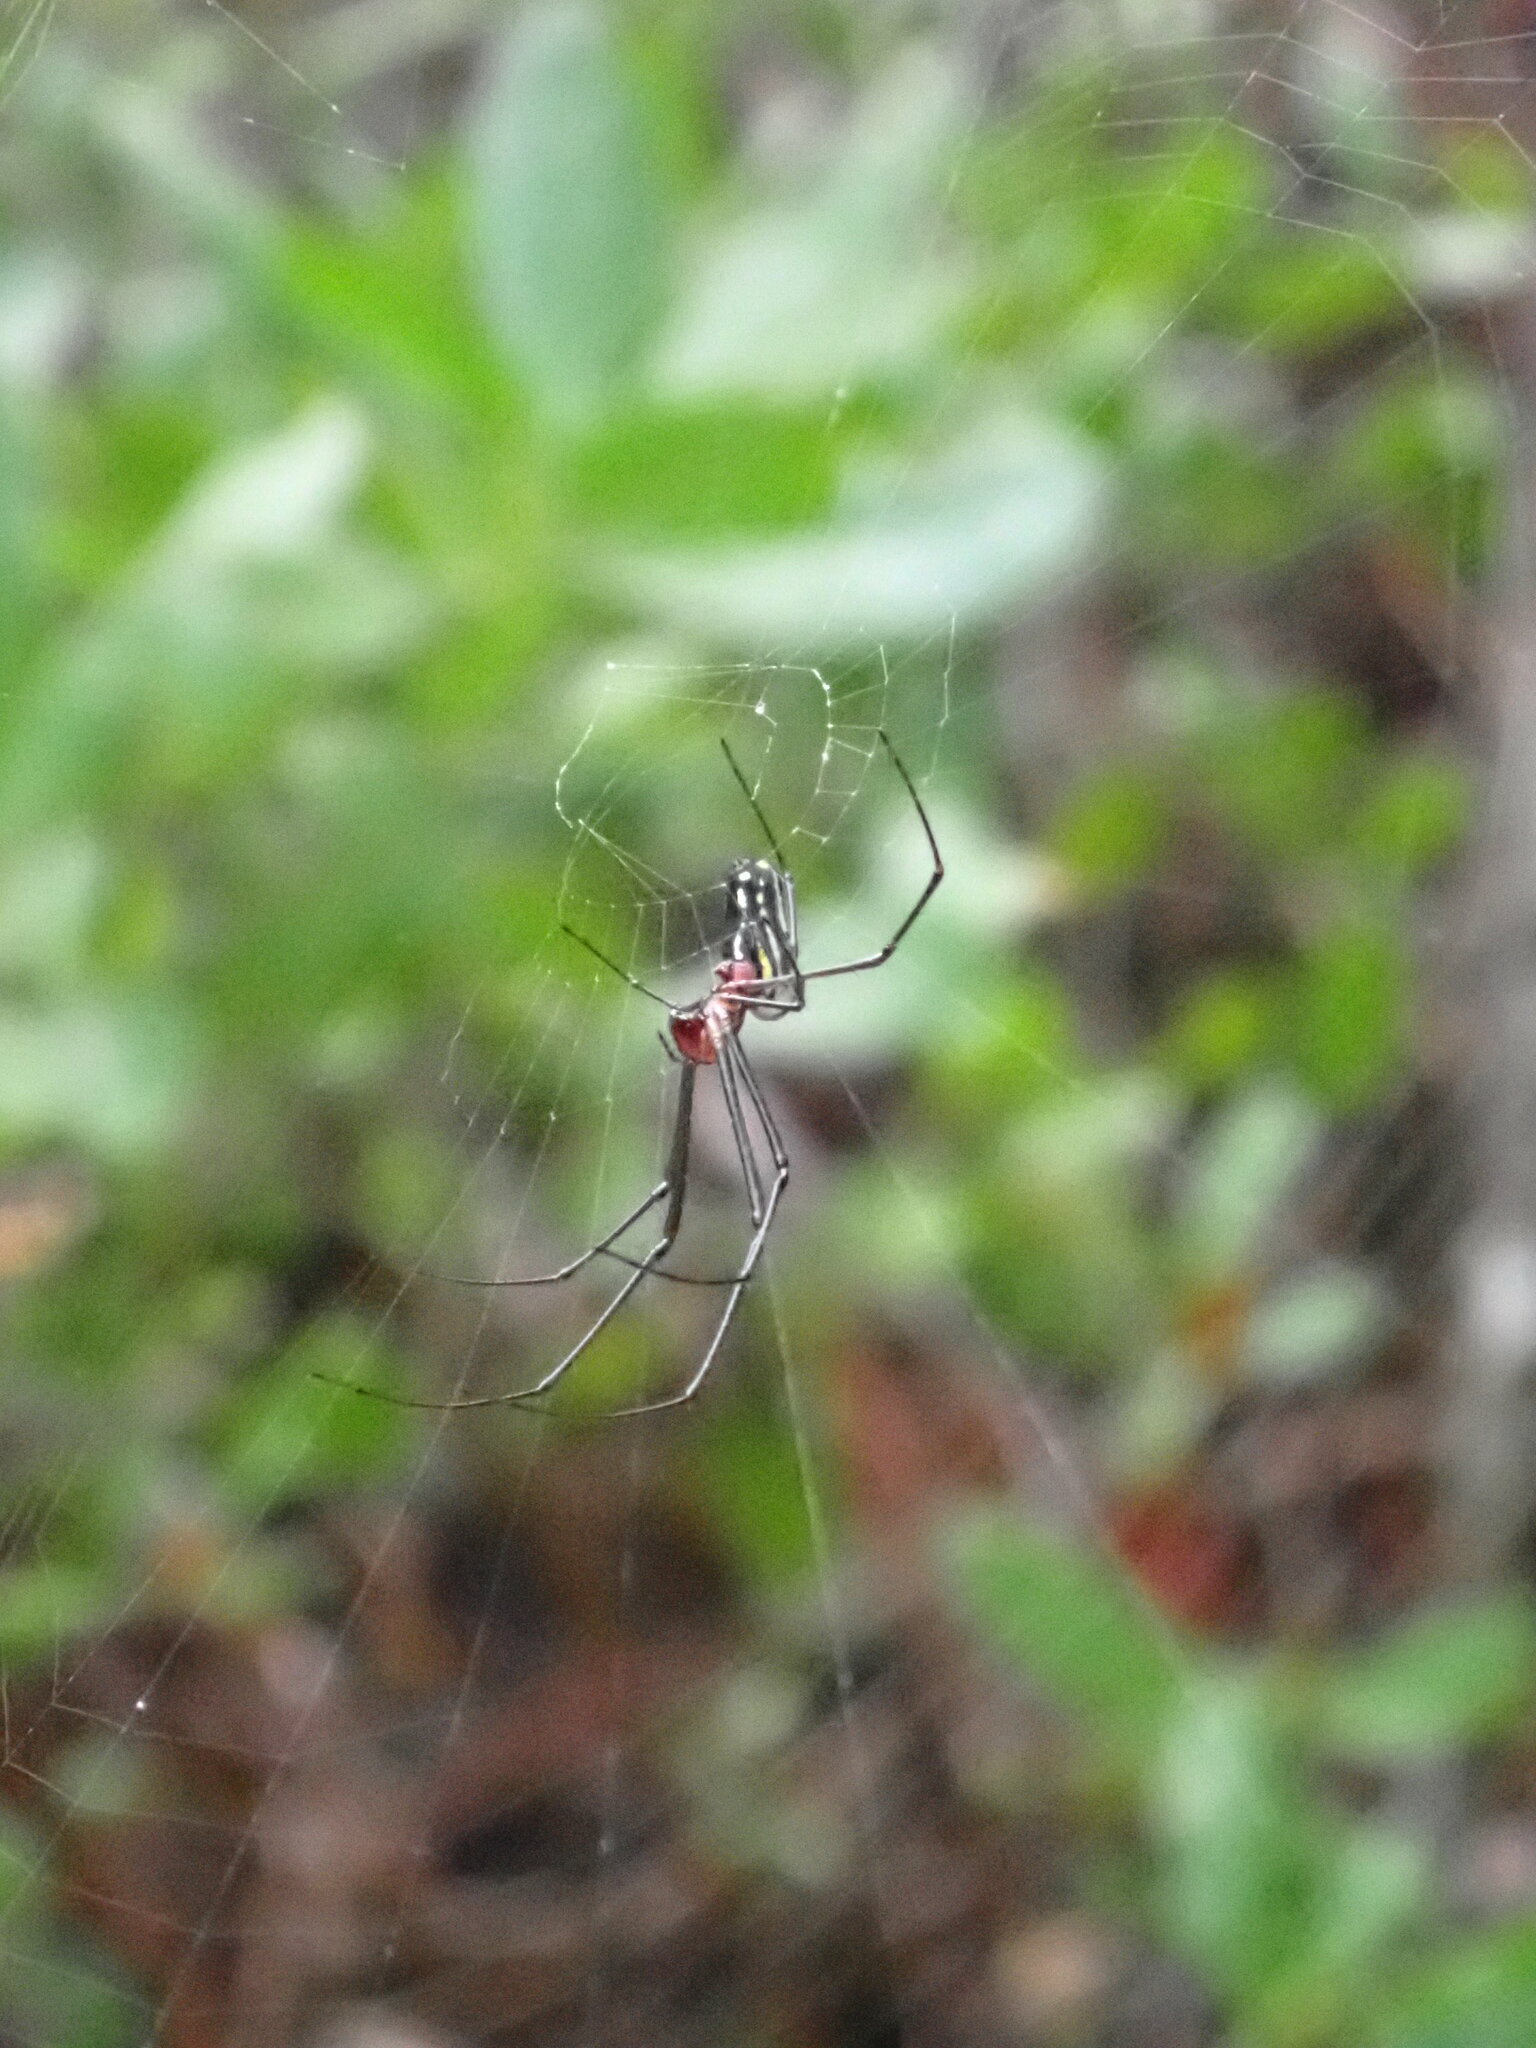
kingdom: Animalia
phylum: Arthropoda
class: Arachnida
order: Araneae
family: Tetragnathidae
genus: Leucauge
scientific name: Leucauge argyra
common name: Longjawed orb weavers
